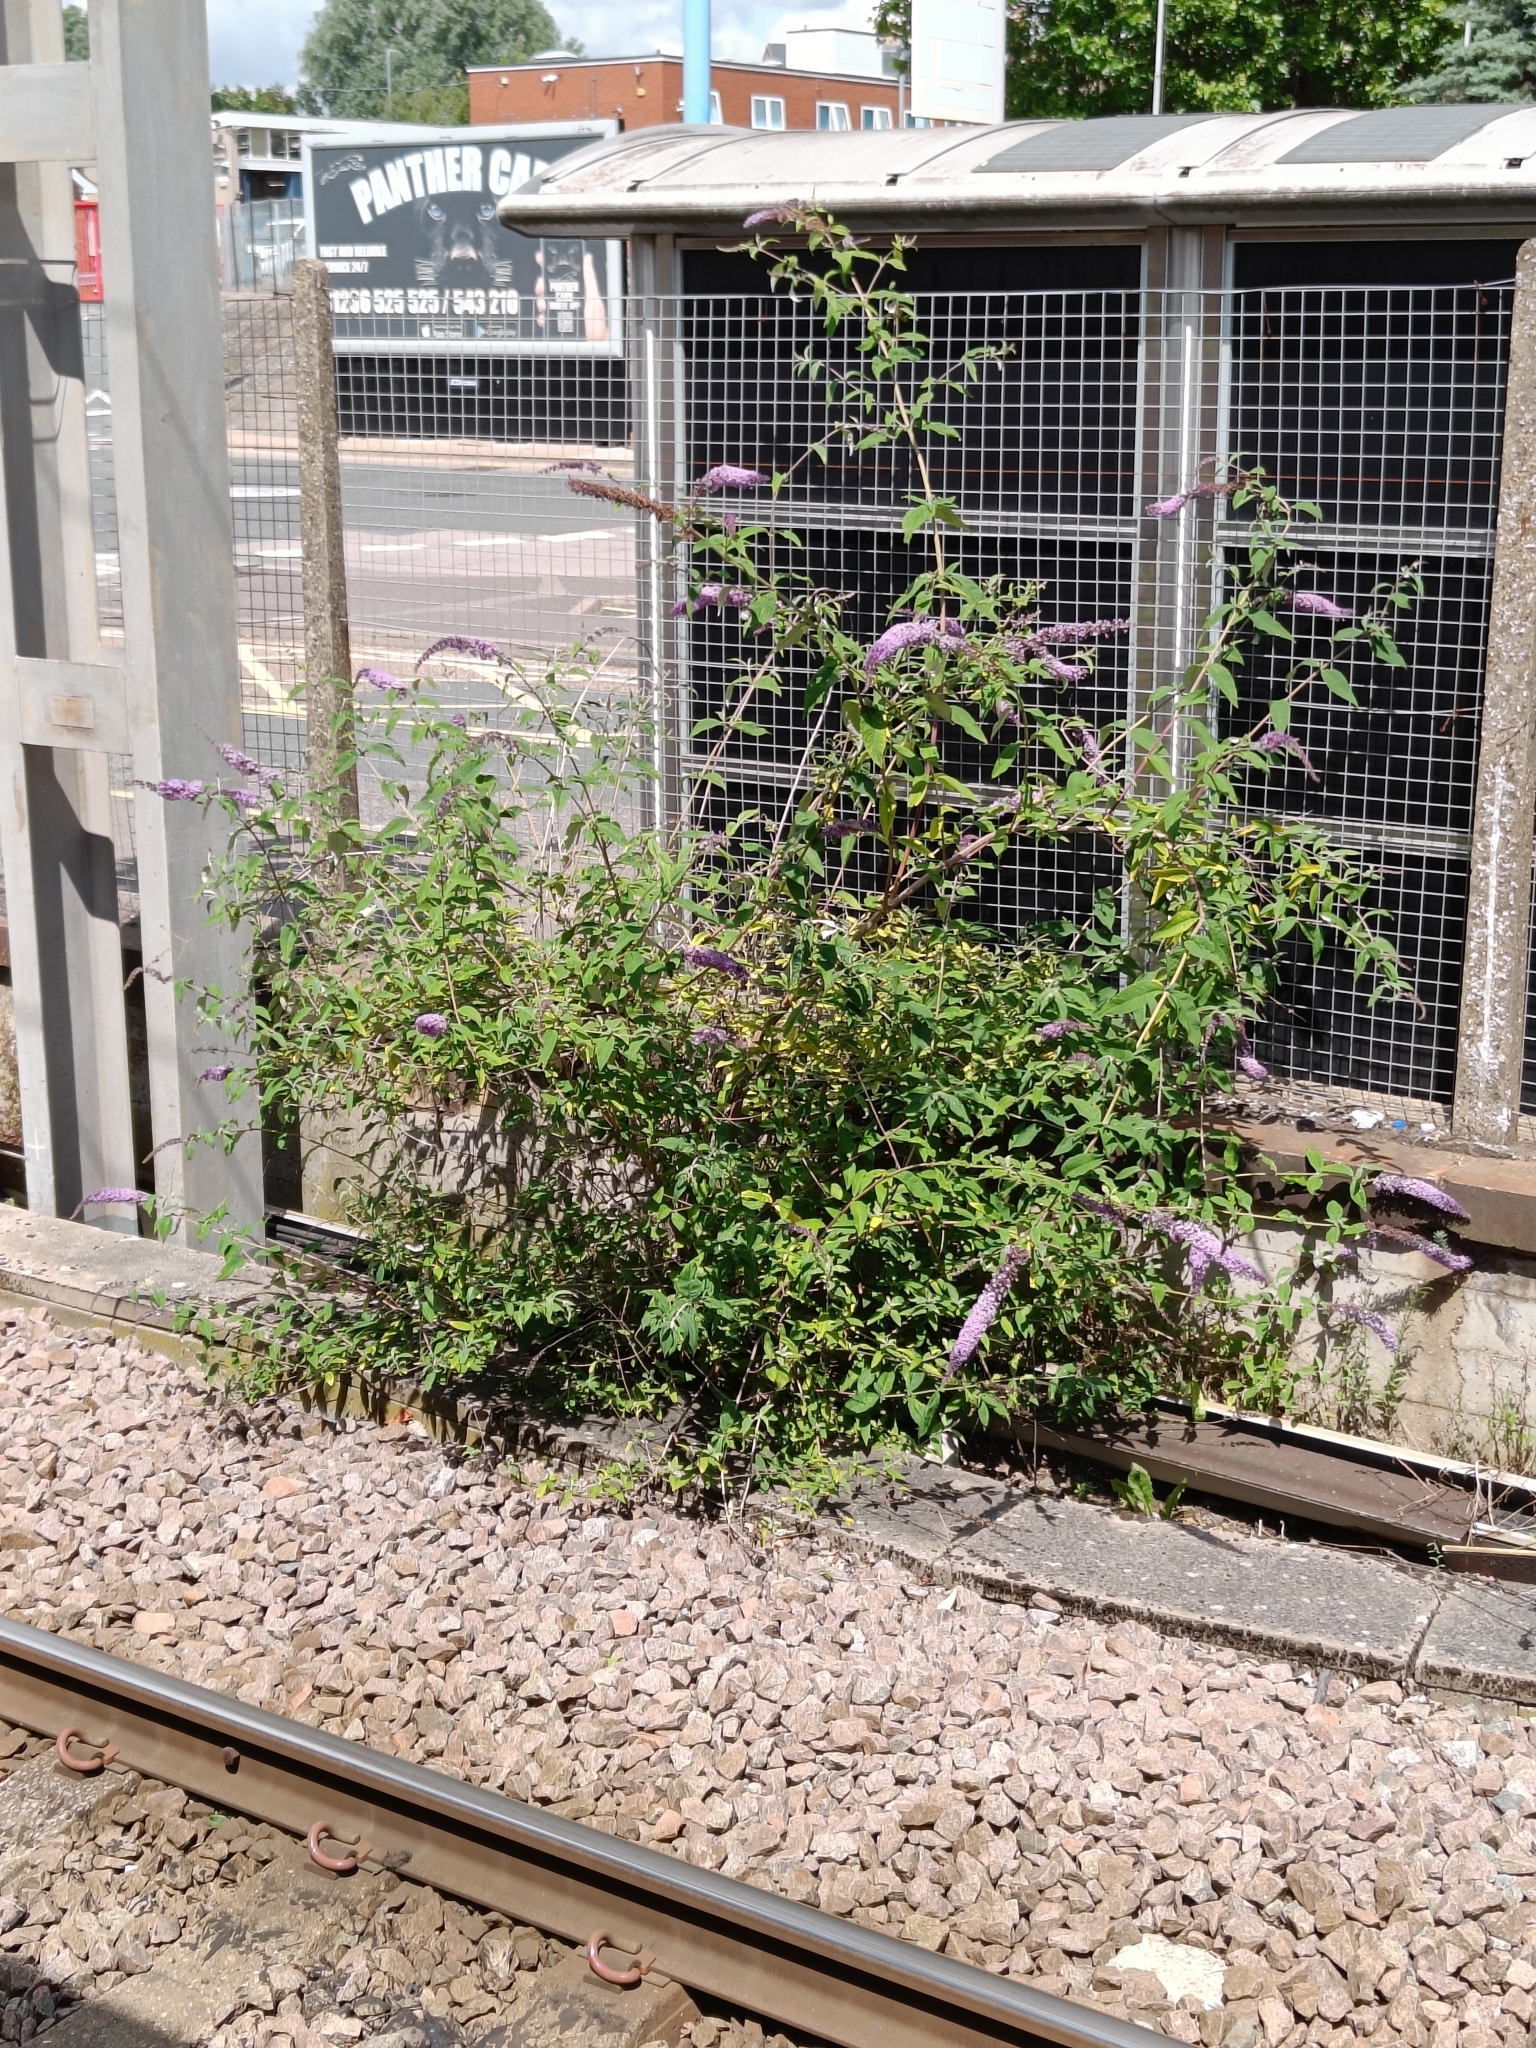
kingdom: Plantae
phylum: Tracheophyta
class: Magnoliopsida
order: Lamiales
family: Scrophulariaceae
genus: Buddleja
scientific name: Buddleja davidii
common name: Butterfly-bush
